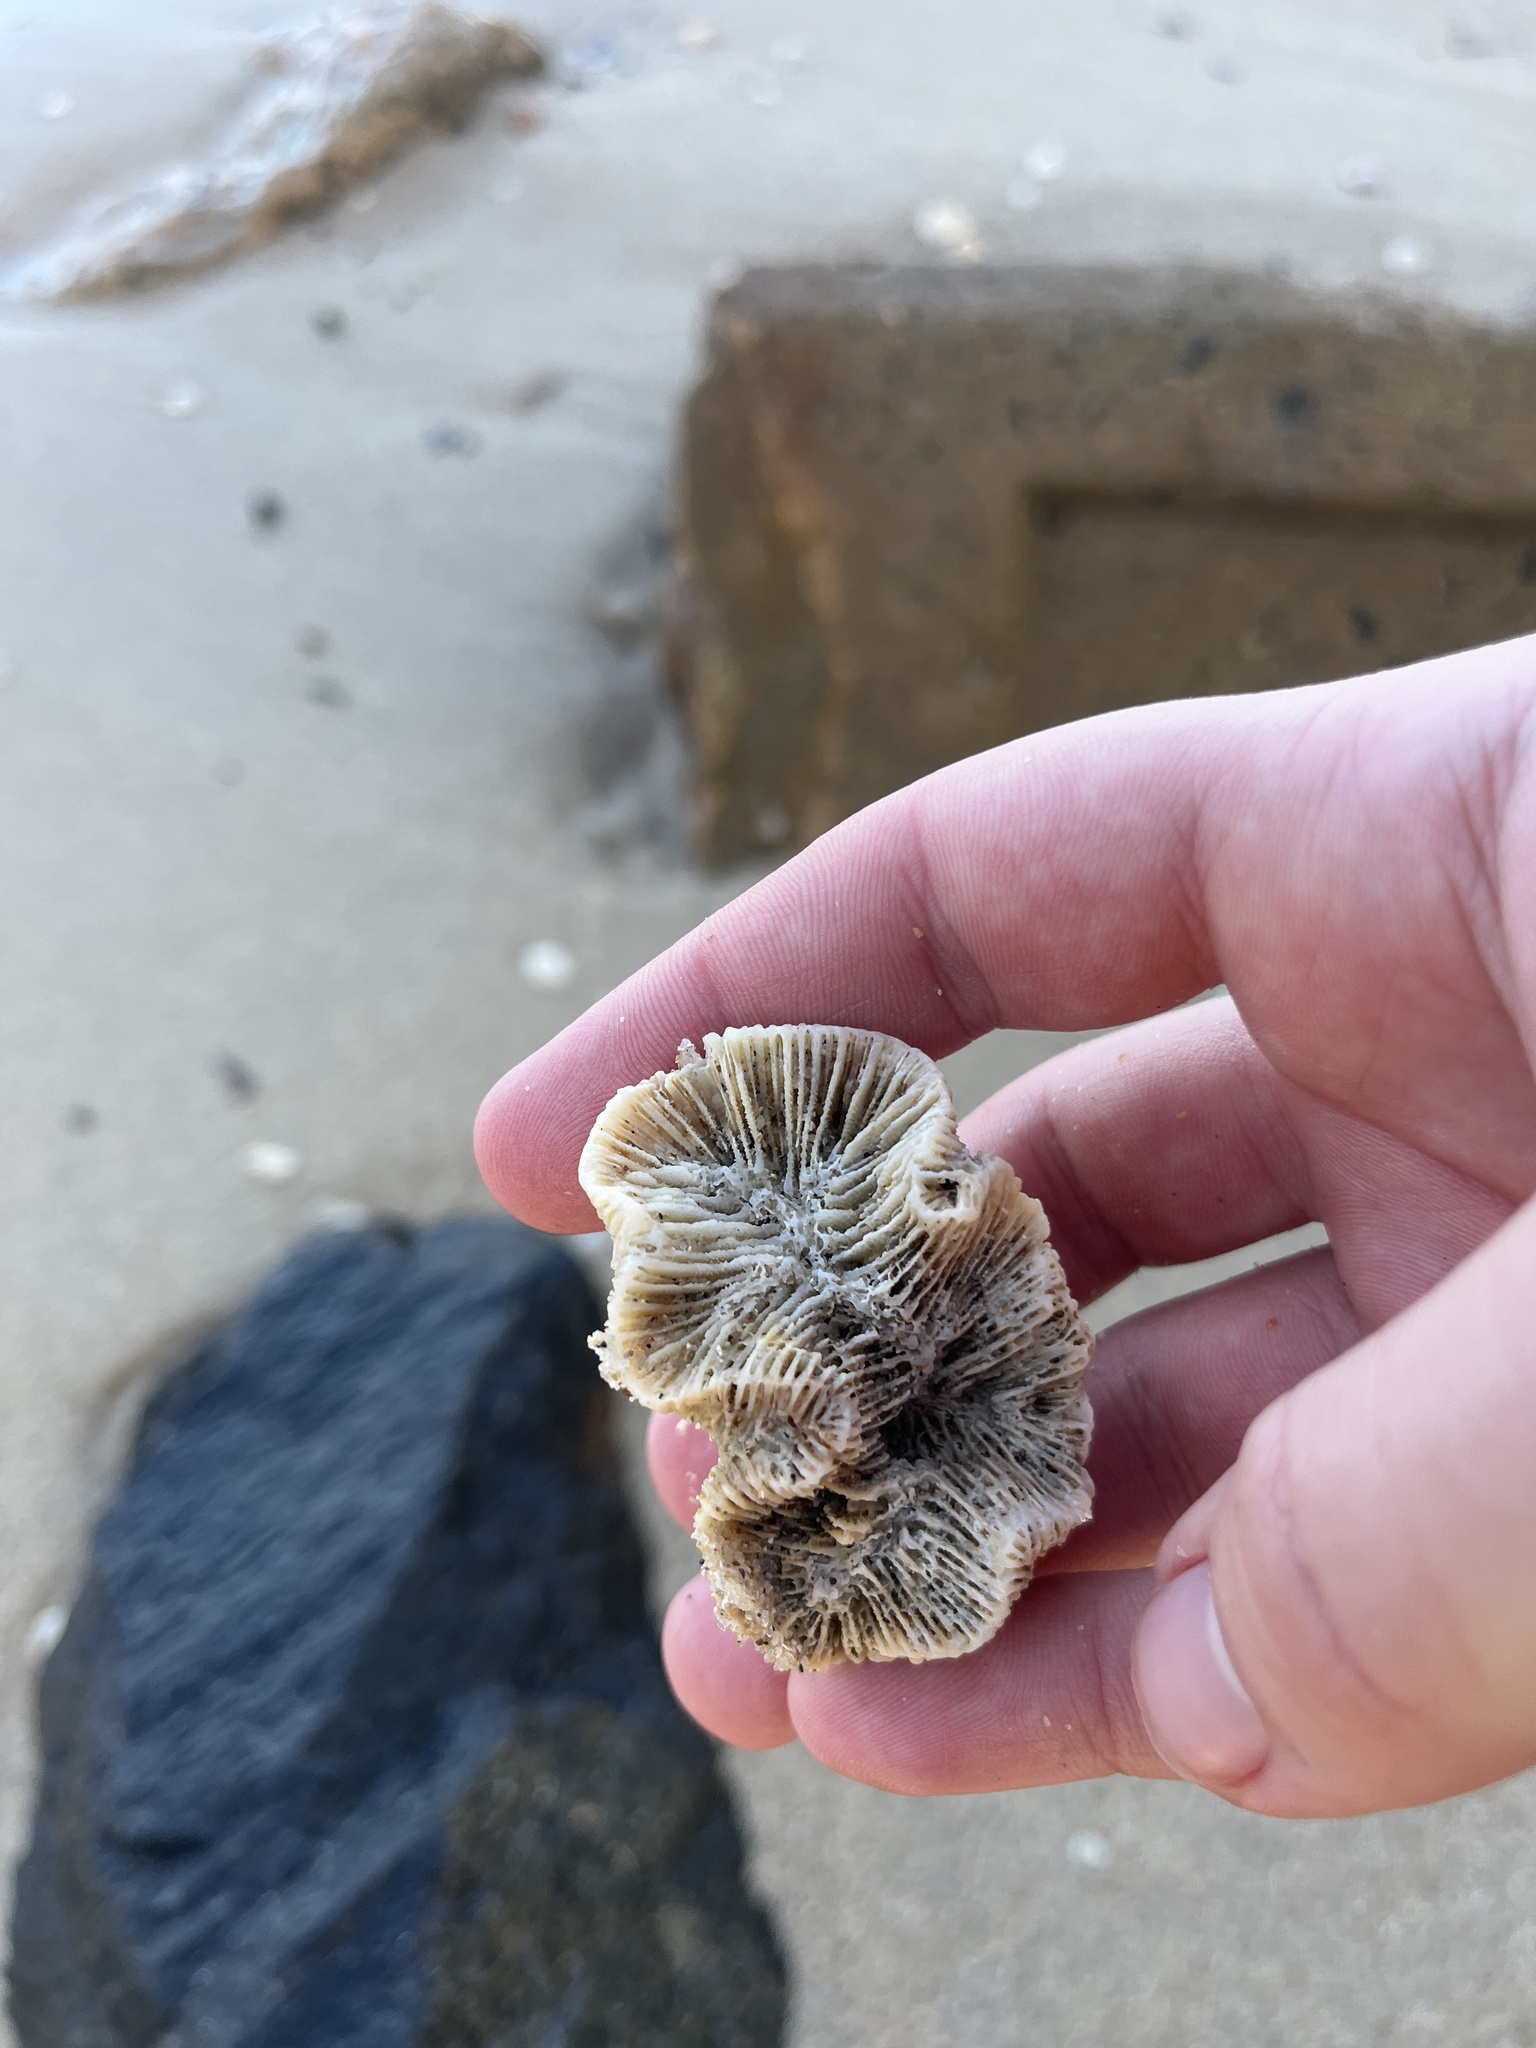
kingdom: Animalia
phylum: Cnidaria
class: Anthozoa
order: Scleractinia
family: Faviidae
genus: Manicina
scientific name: Manicina areolata
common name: Rose coral
